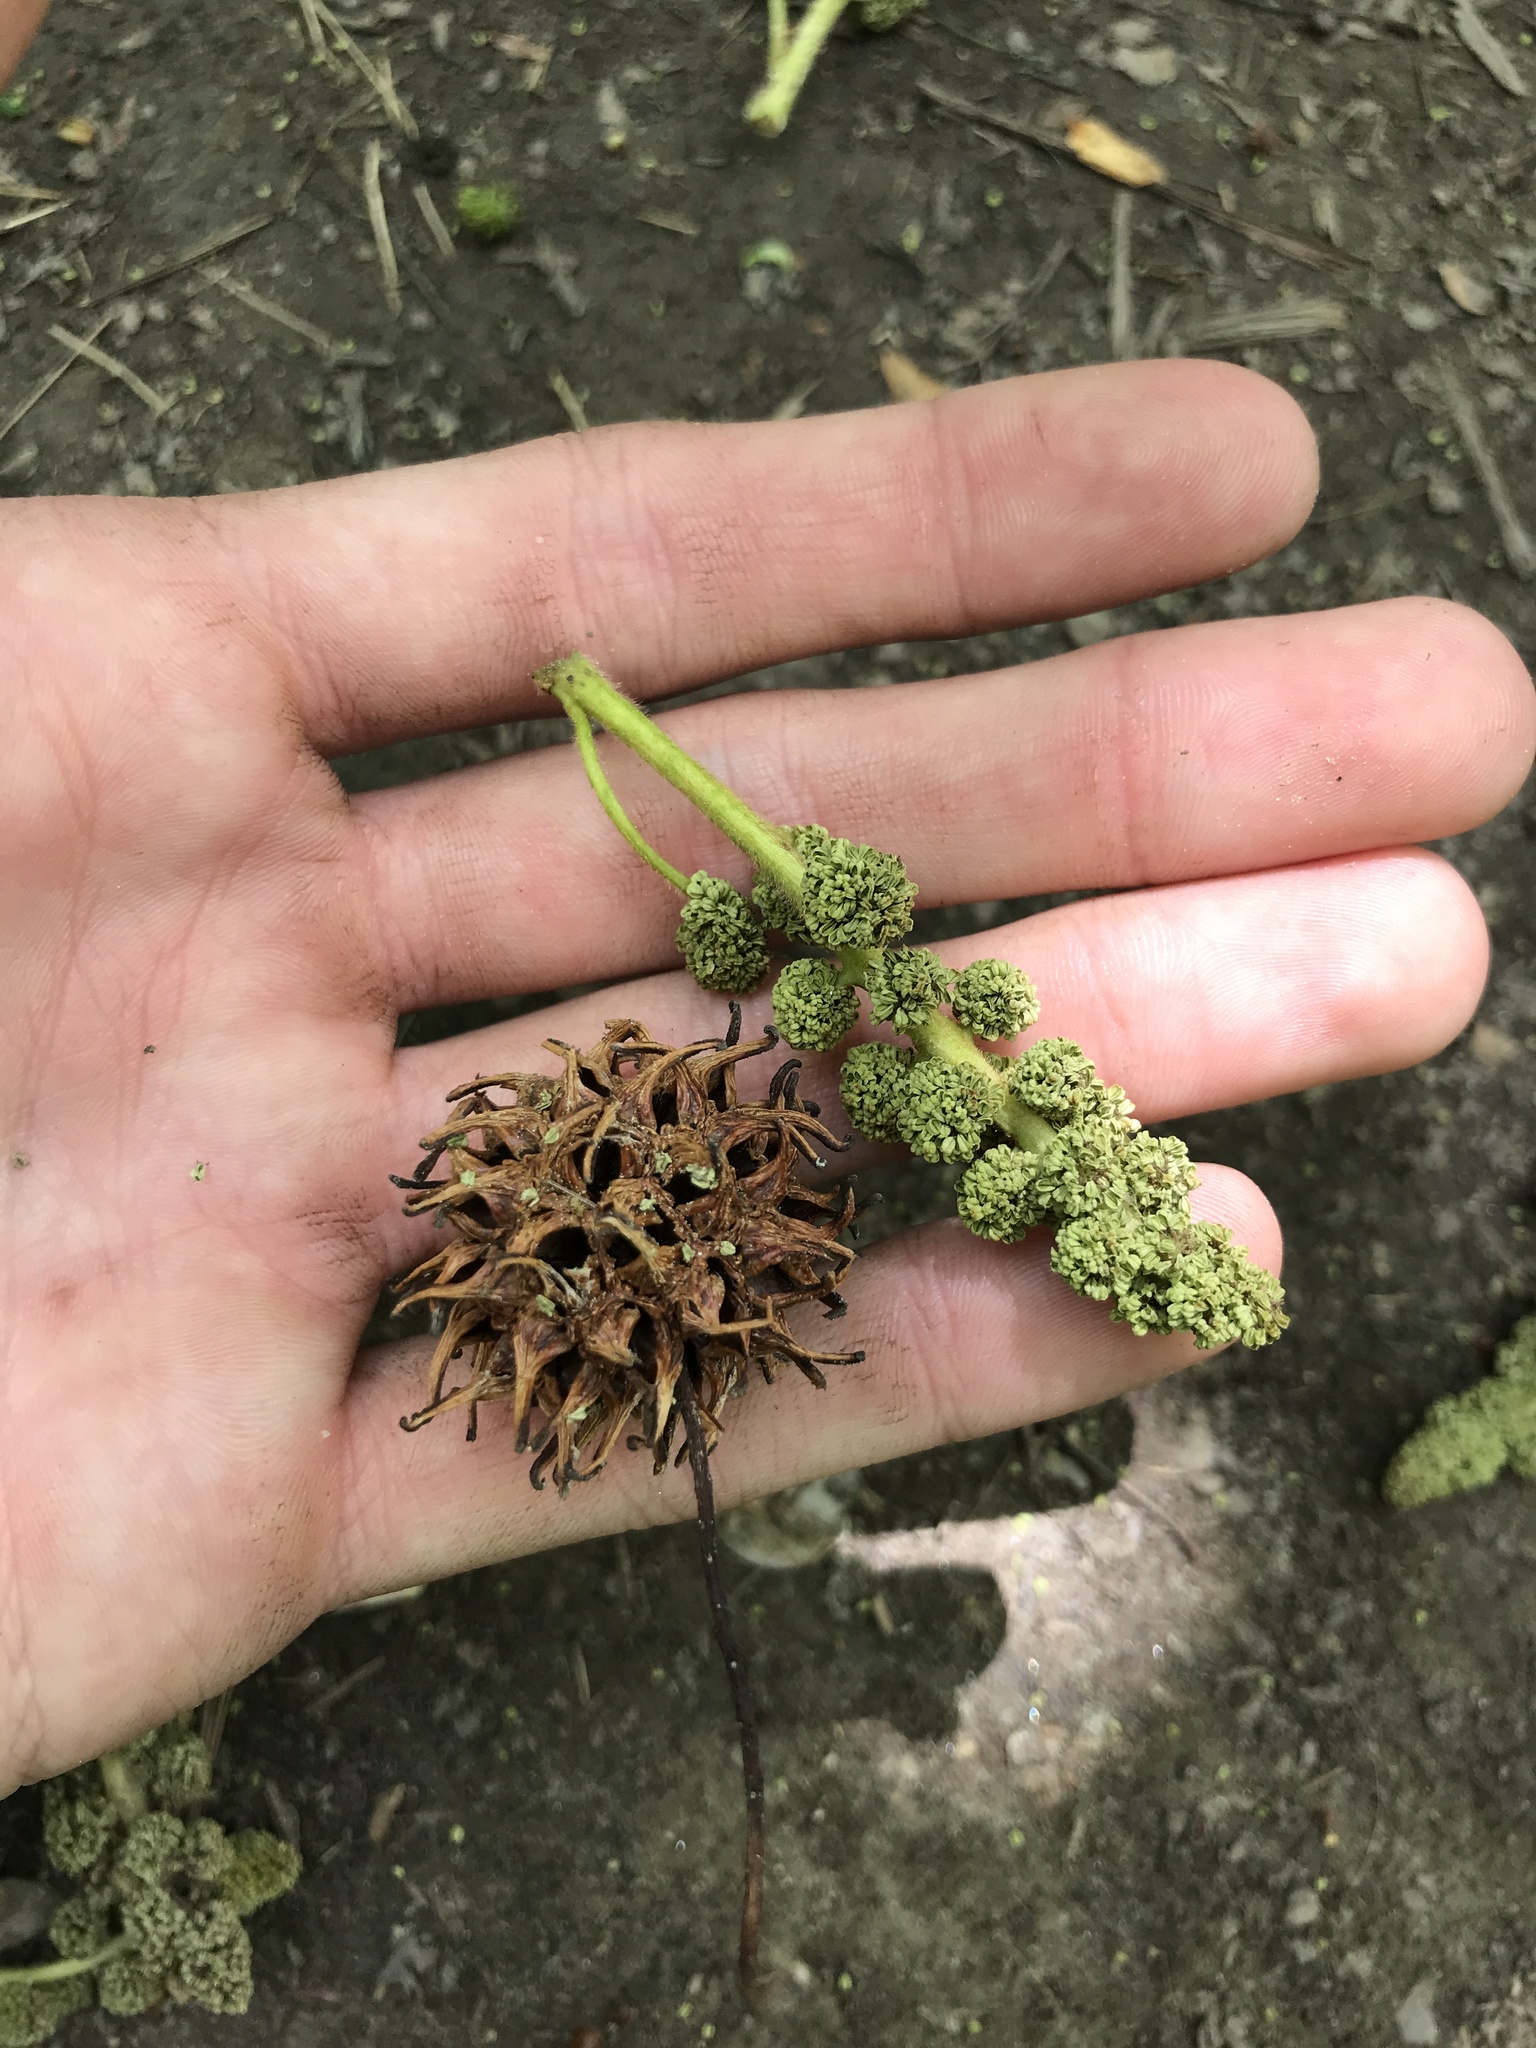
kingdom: Plantae
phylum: Tracheophyta
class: Magnoliopsida
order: Saxifragales
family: Altingiaceae
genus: Liquidambar
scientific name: Liquidambar styraciflua
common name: Sweet gum
